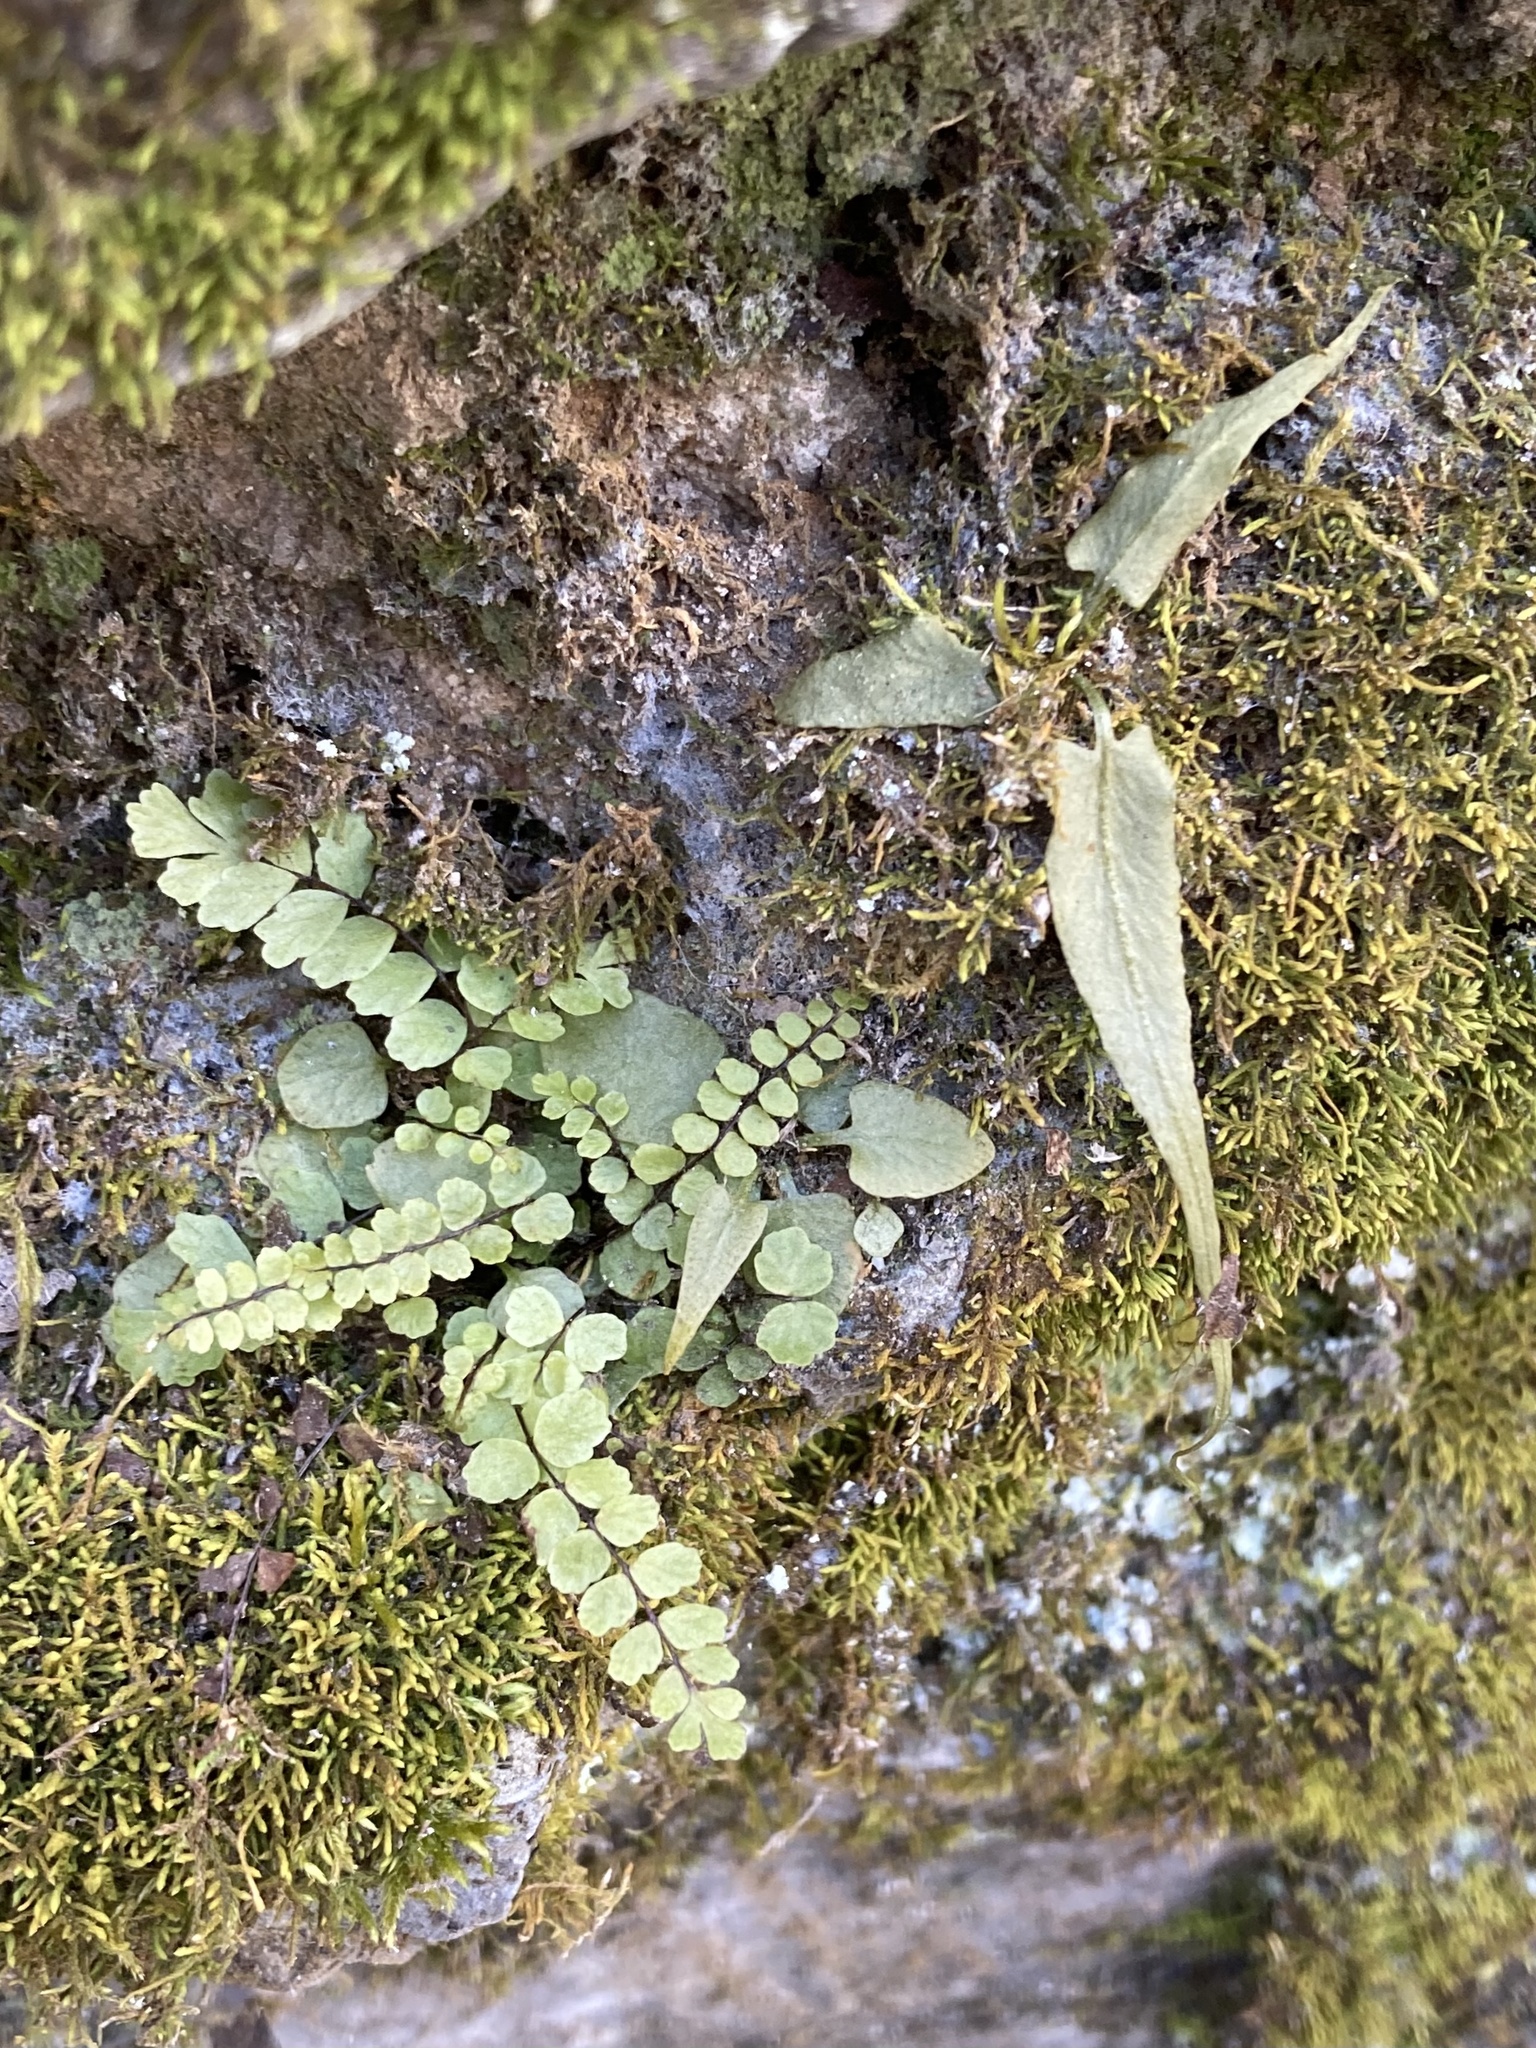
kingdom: Plantae
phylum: Tracheophyta
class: Polypodiopsida
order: Polypodiales
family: Aspleniaceae
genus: Asplenium
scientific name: Asplenium trichomanes
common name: Maidenhair spleenwort
